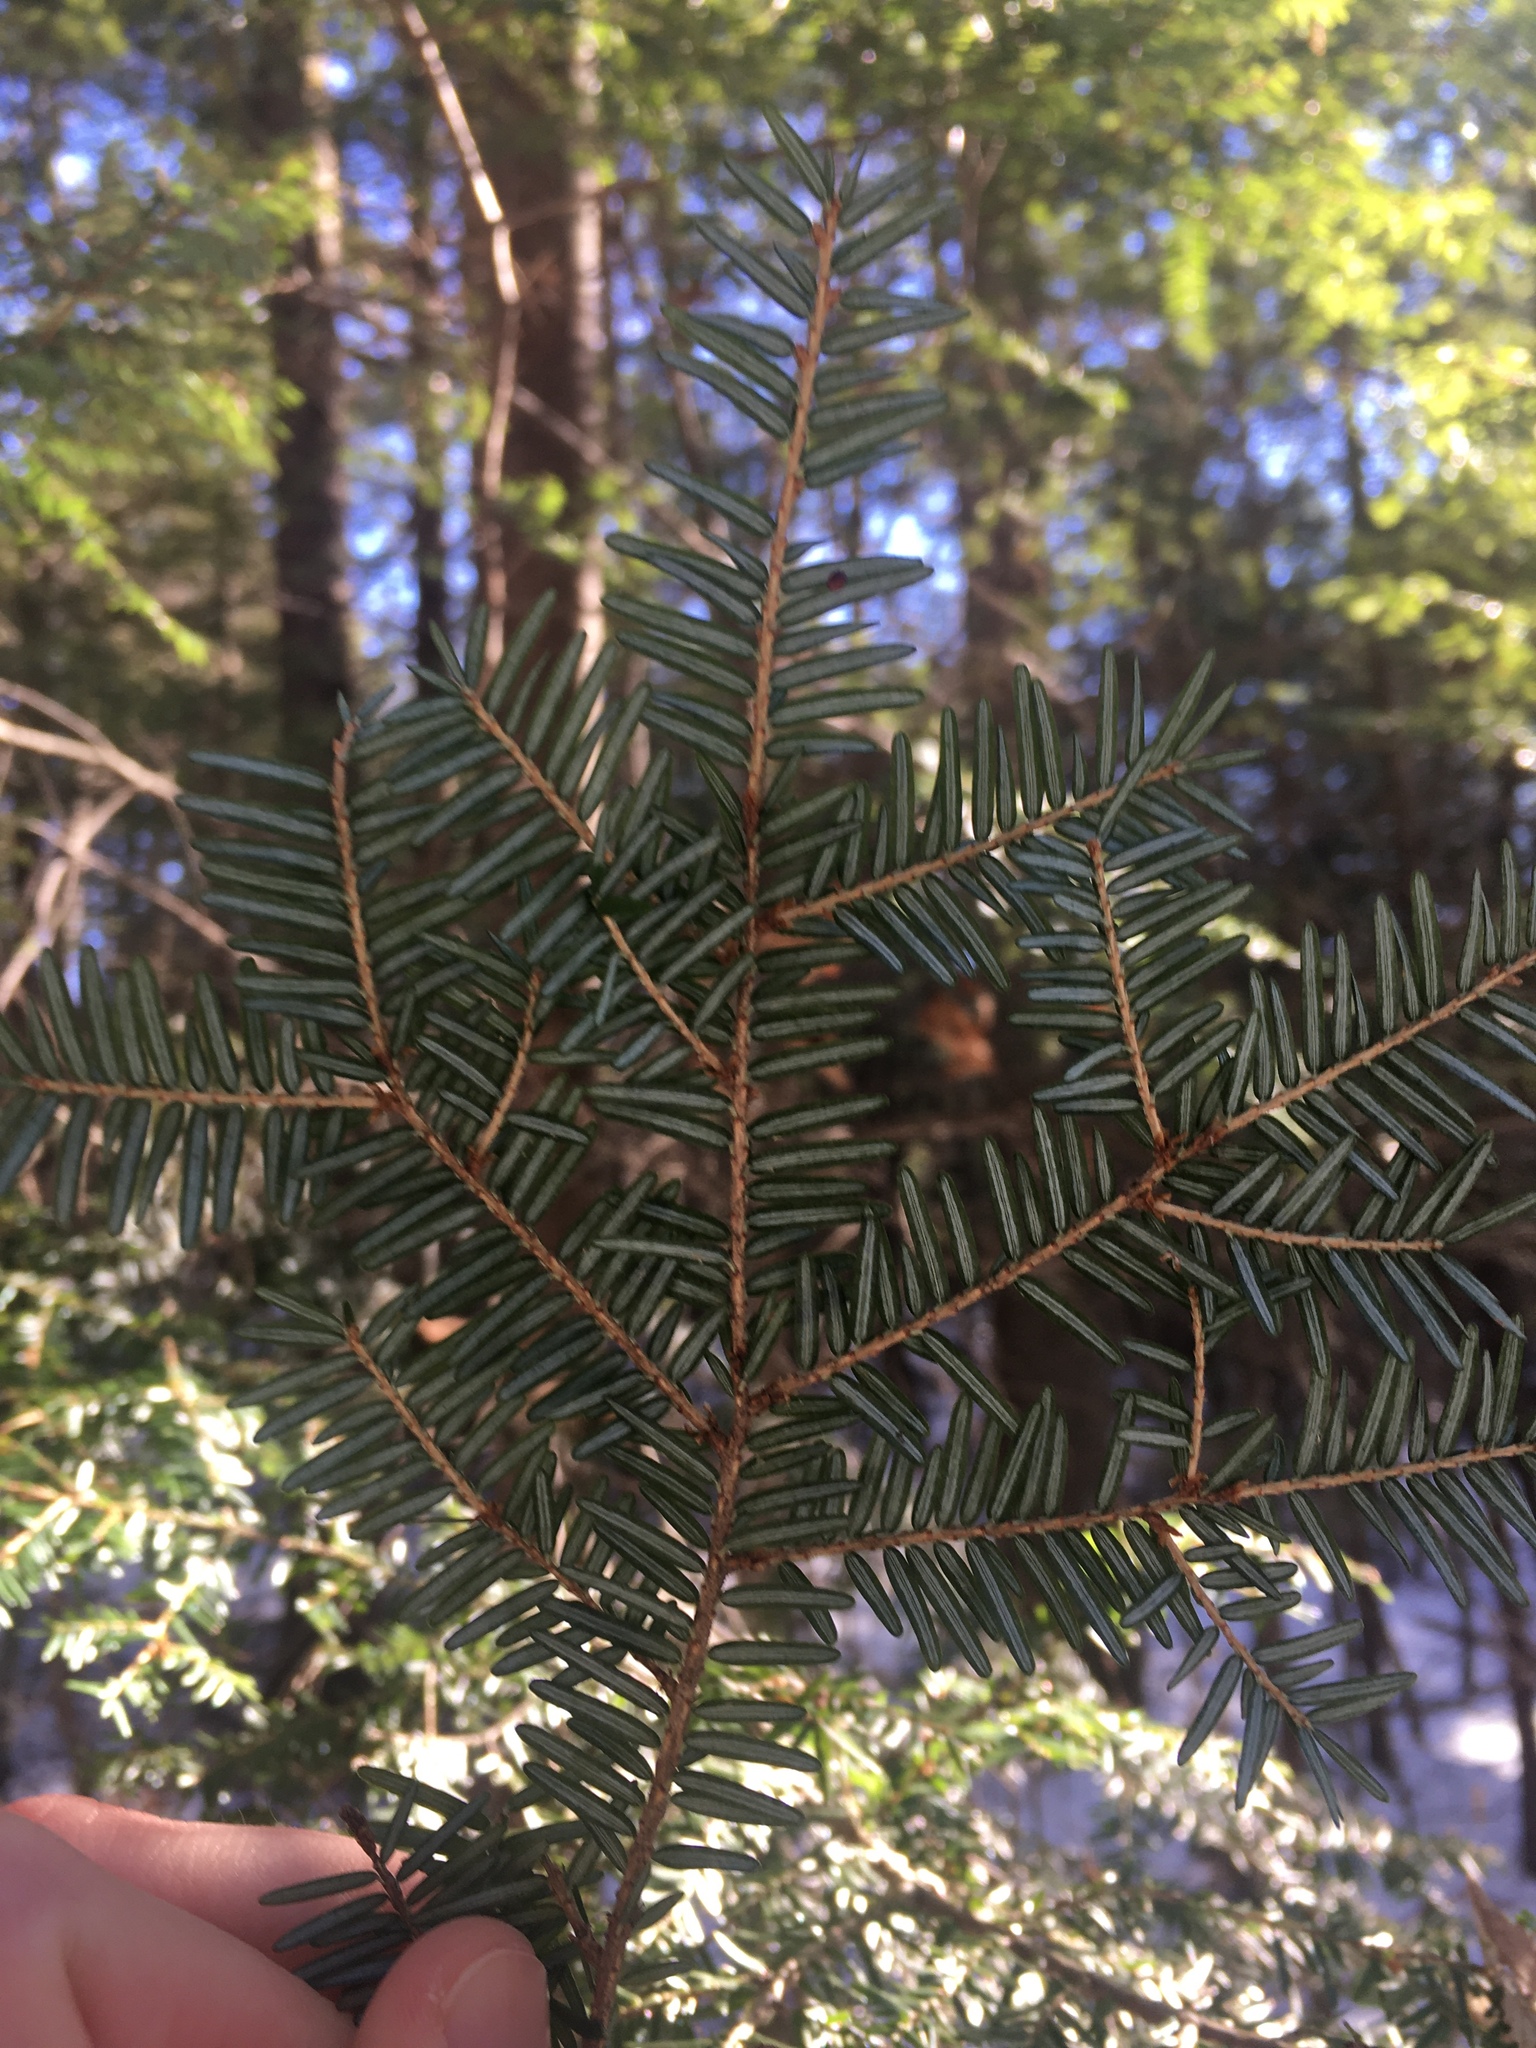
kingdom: Plantae
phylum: Tracheophyta
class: Pinopsida
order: Pinales
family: Pinaceae
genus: Tsuga
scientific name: Tsuga canadensis
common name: Eastern hemlock
